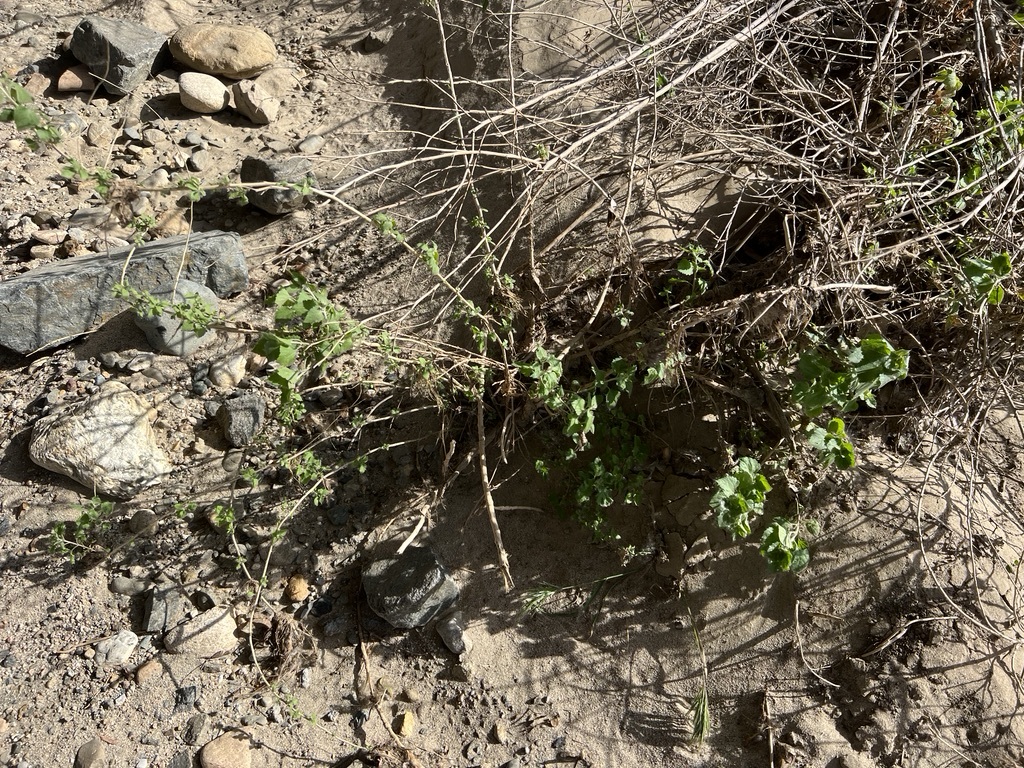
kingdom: Plantae
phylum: Tracheophyta
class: Magnoliopsida
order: Asterales
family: Asteraceae
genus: Brickellia
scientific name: Brickellia californica
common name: California brickellbush
